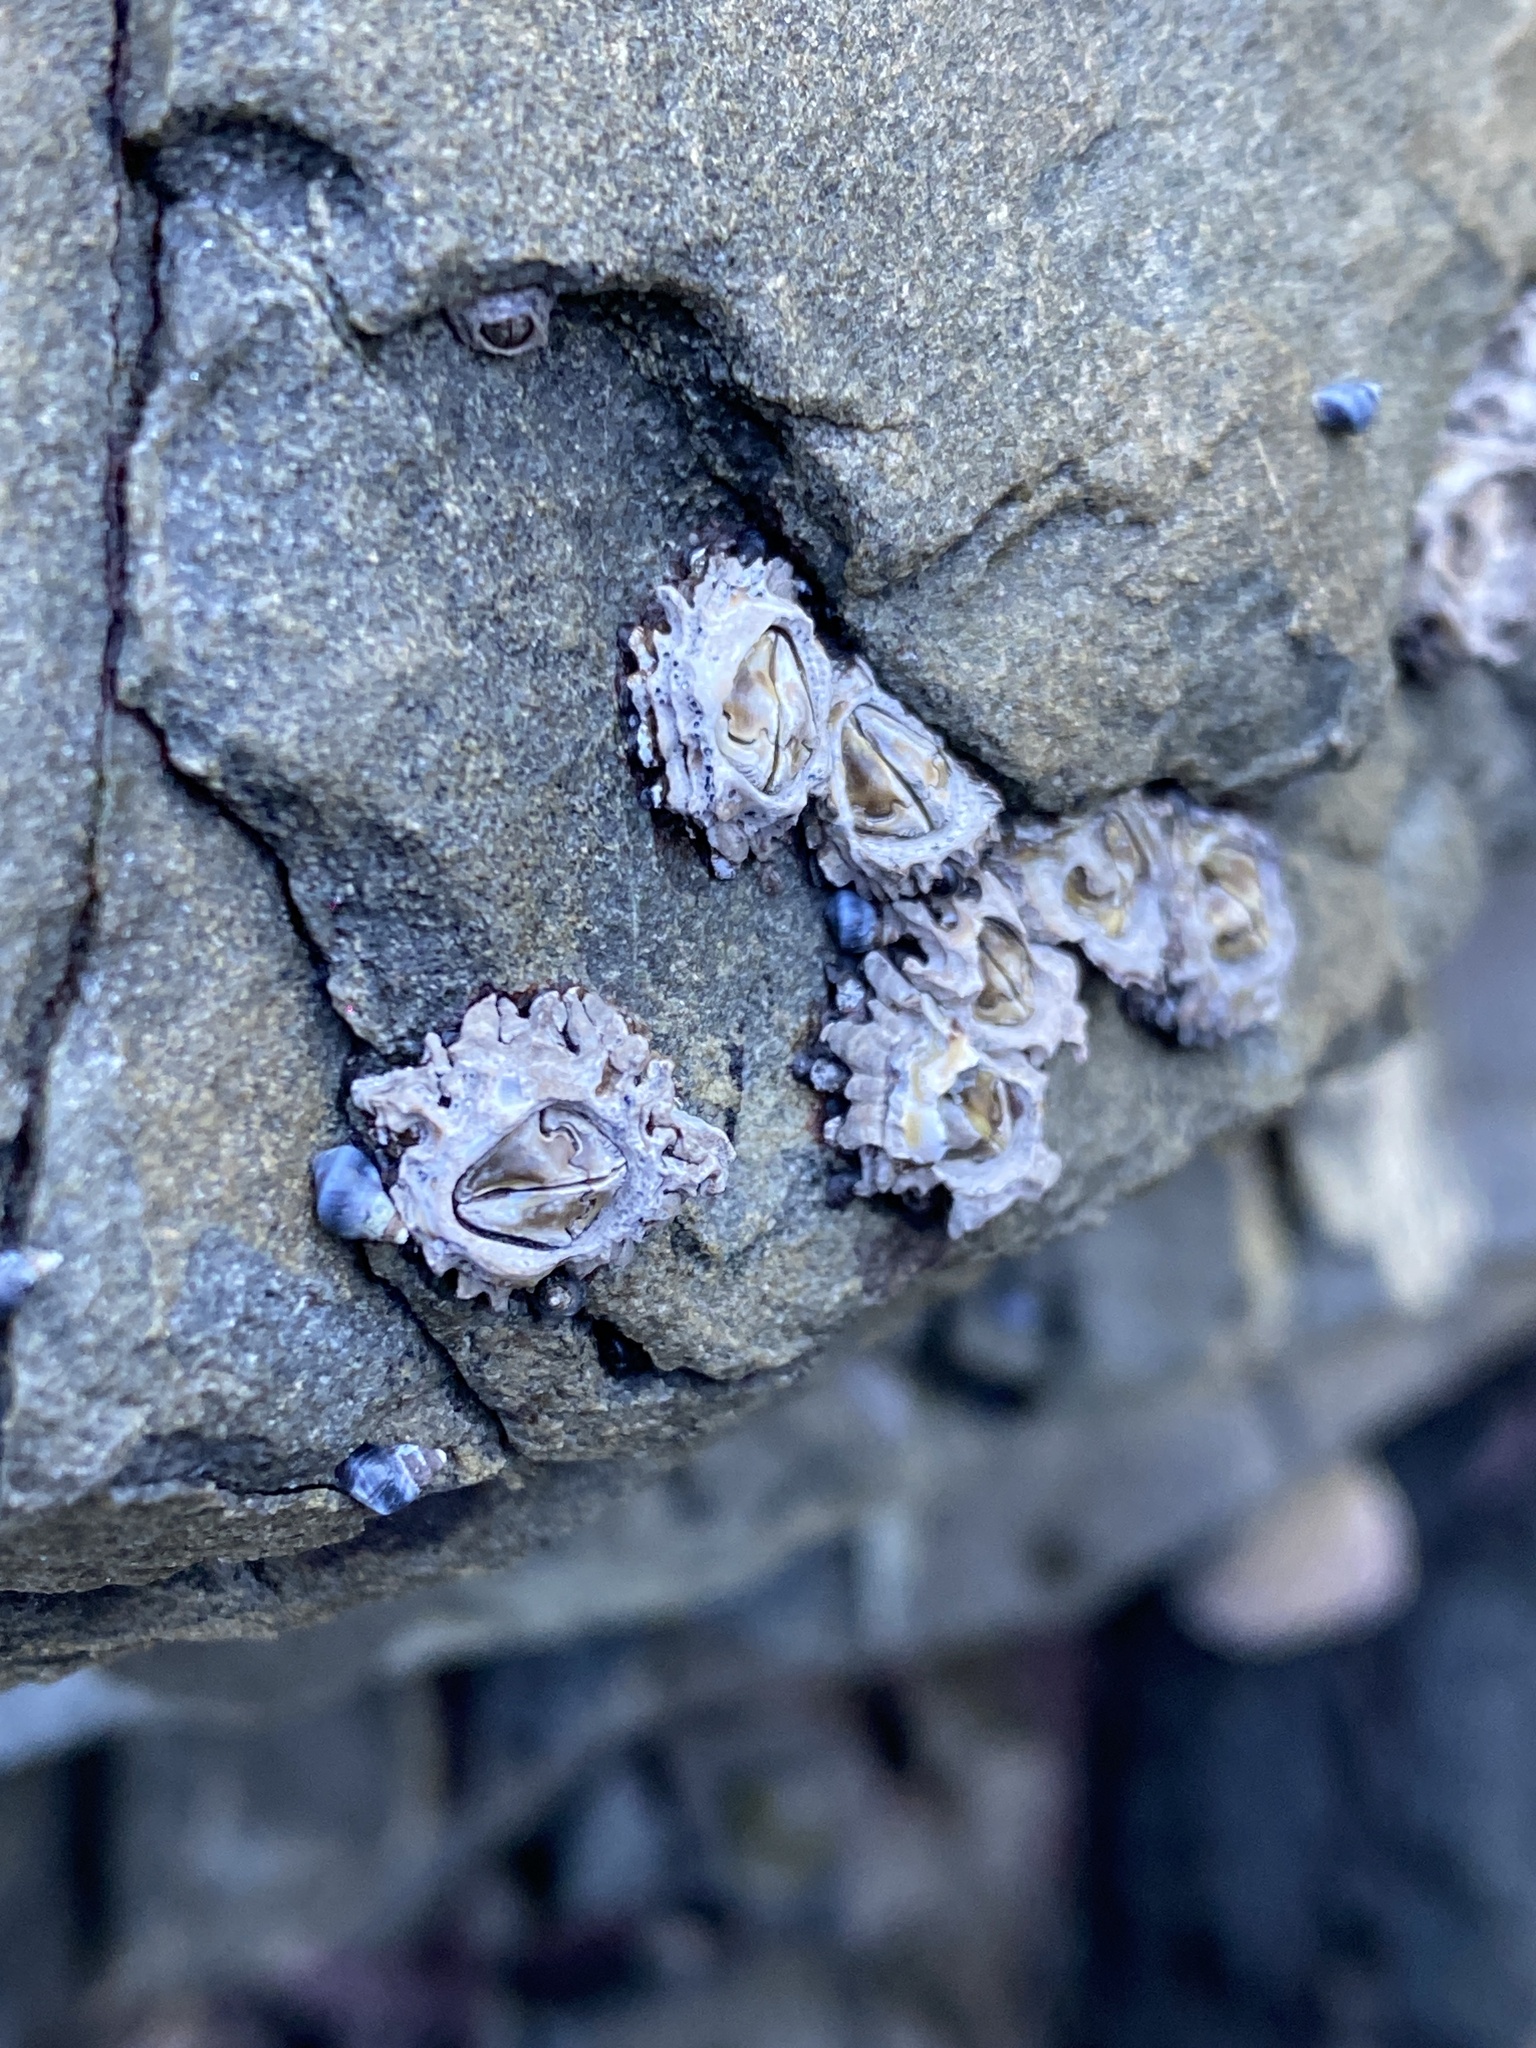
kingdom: Animalia
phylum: Arthropoda
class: Maxillopoda
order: Sessilia
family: Chthamalidae
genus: Chamaesipho
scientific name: Chamaesipho brunnea
